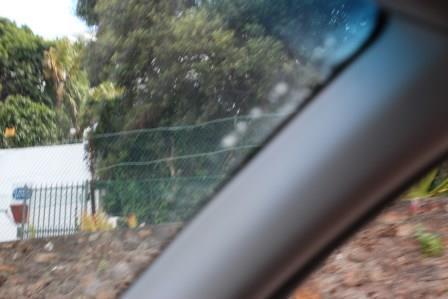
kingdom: Plantae
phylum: Tracheophyta
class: Magnoliopsida
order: Dipsacales
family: Caprifoliaceae
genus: Centranthus
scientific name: Centranthus ruber
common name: Red valerian
